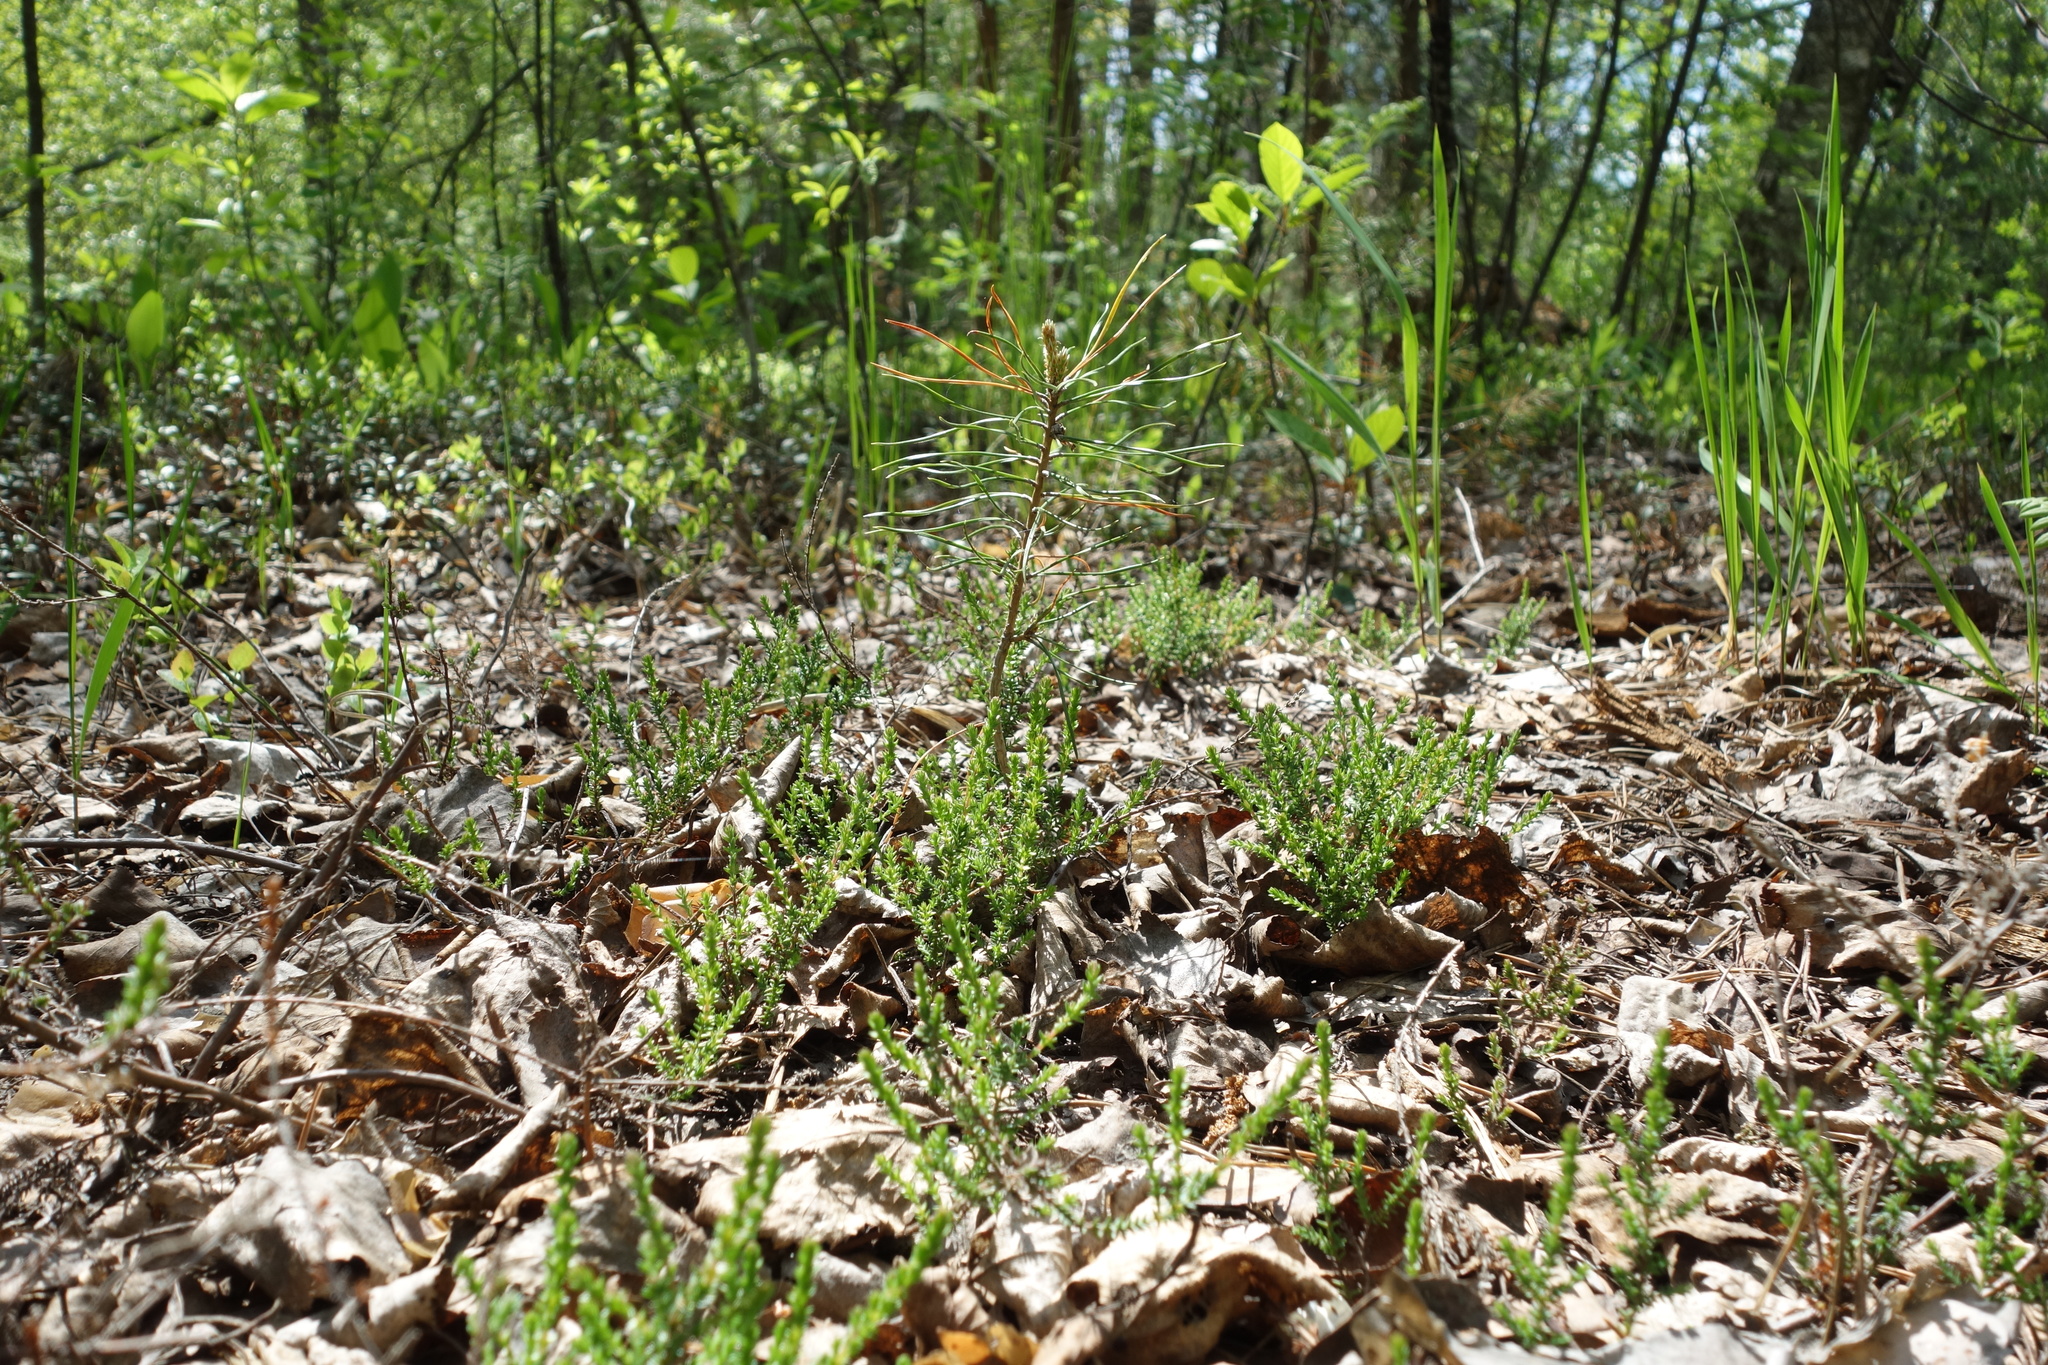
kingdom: Plantae
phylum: Tracheophyta
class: Magnoliopsida
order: Ericales
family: Ericaceae
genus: Calluna
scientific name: Calluna vulgaris
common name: Heather
